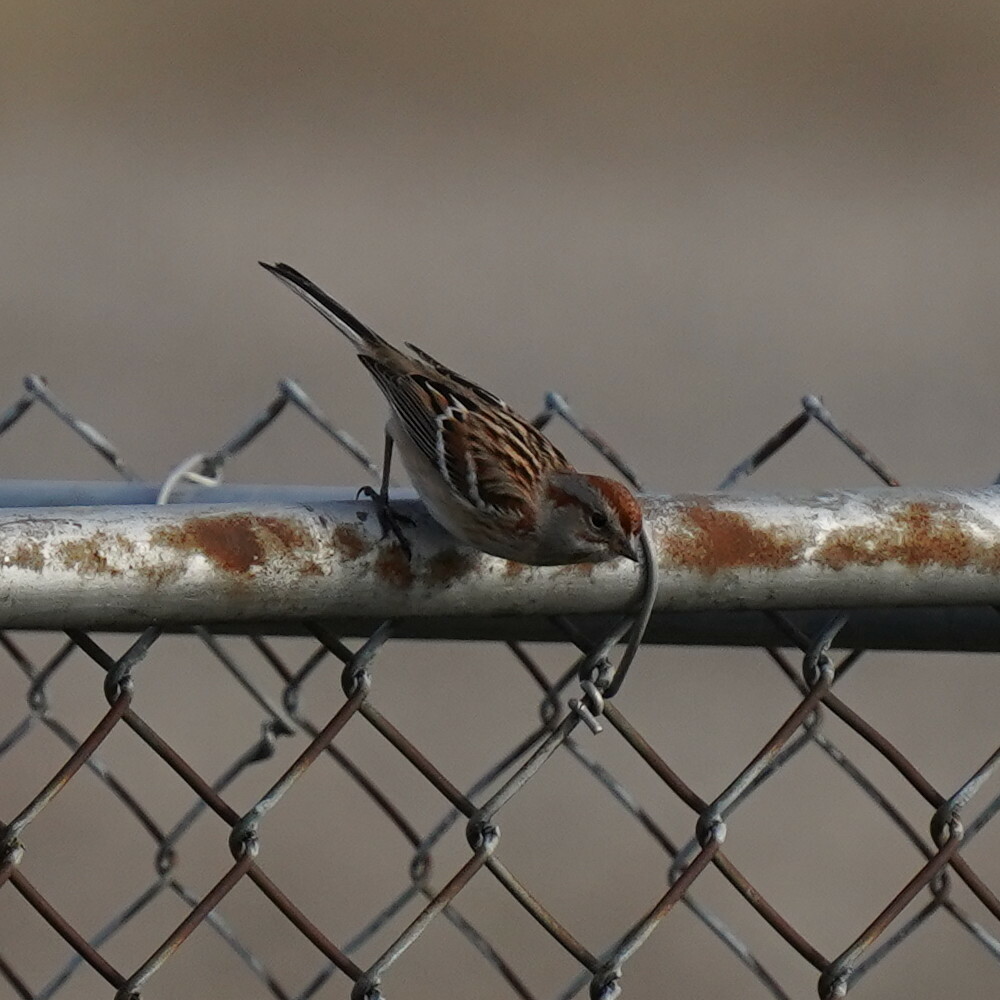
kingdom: Animalia
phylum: Chordata
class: Aves
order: Passeriformes
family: Passerellidae
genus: Spizelloides
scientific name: Spizelloides arborea
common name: American tree sparrow
